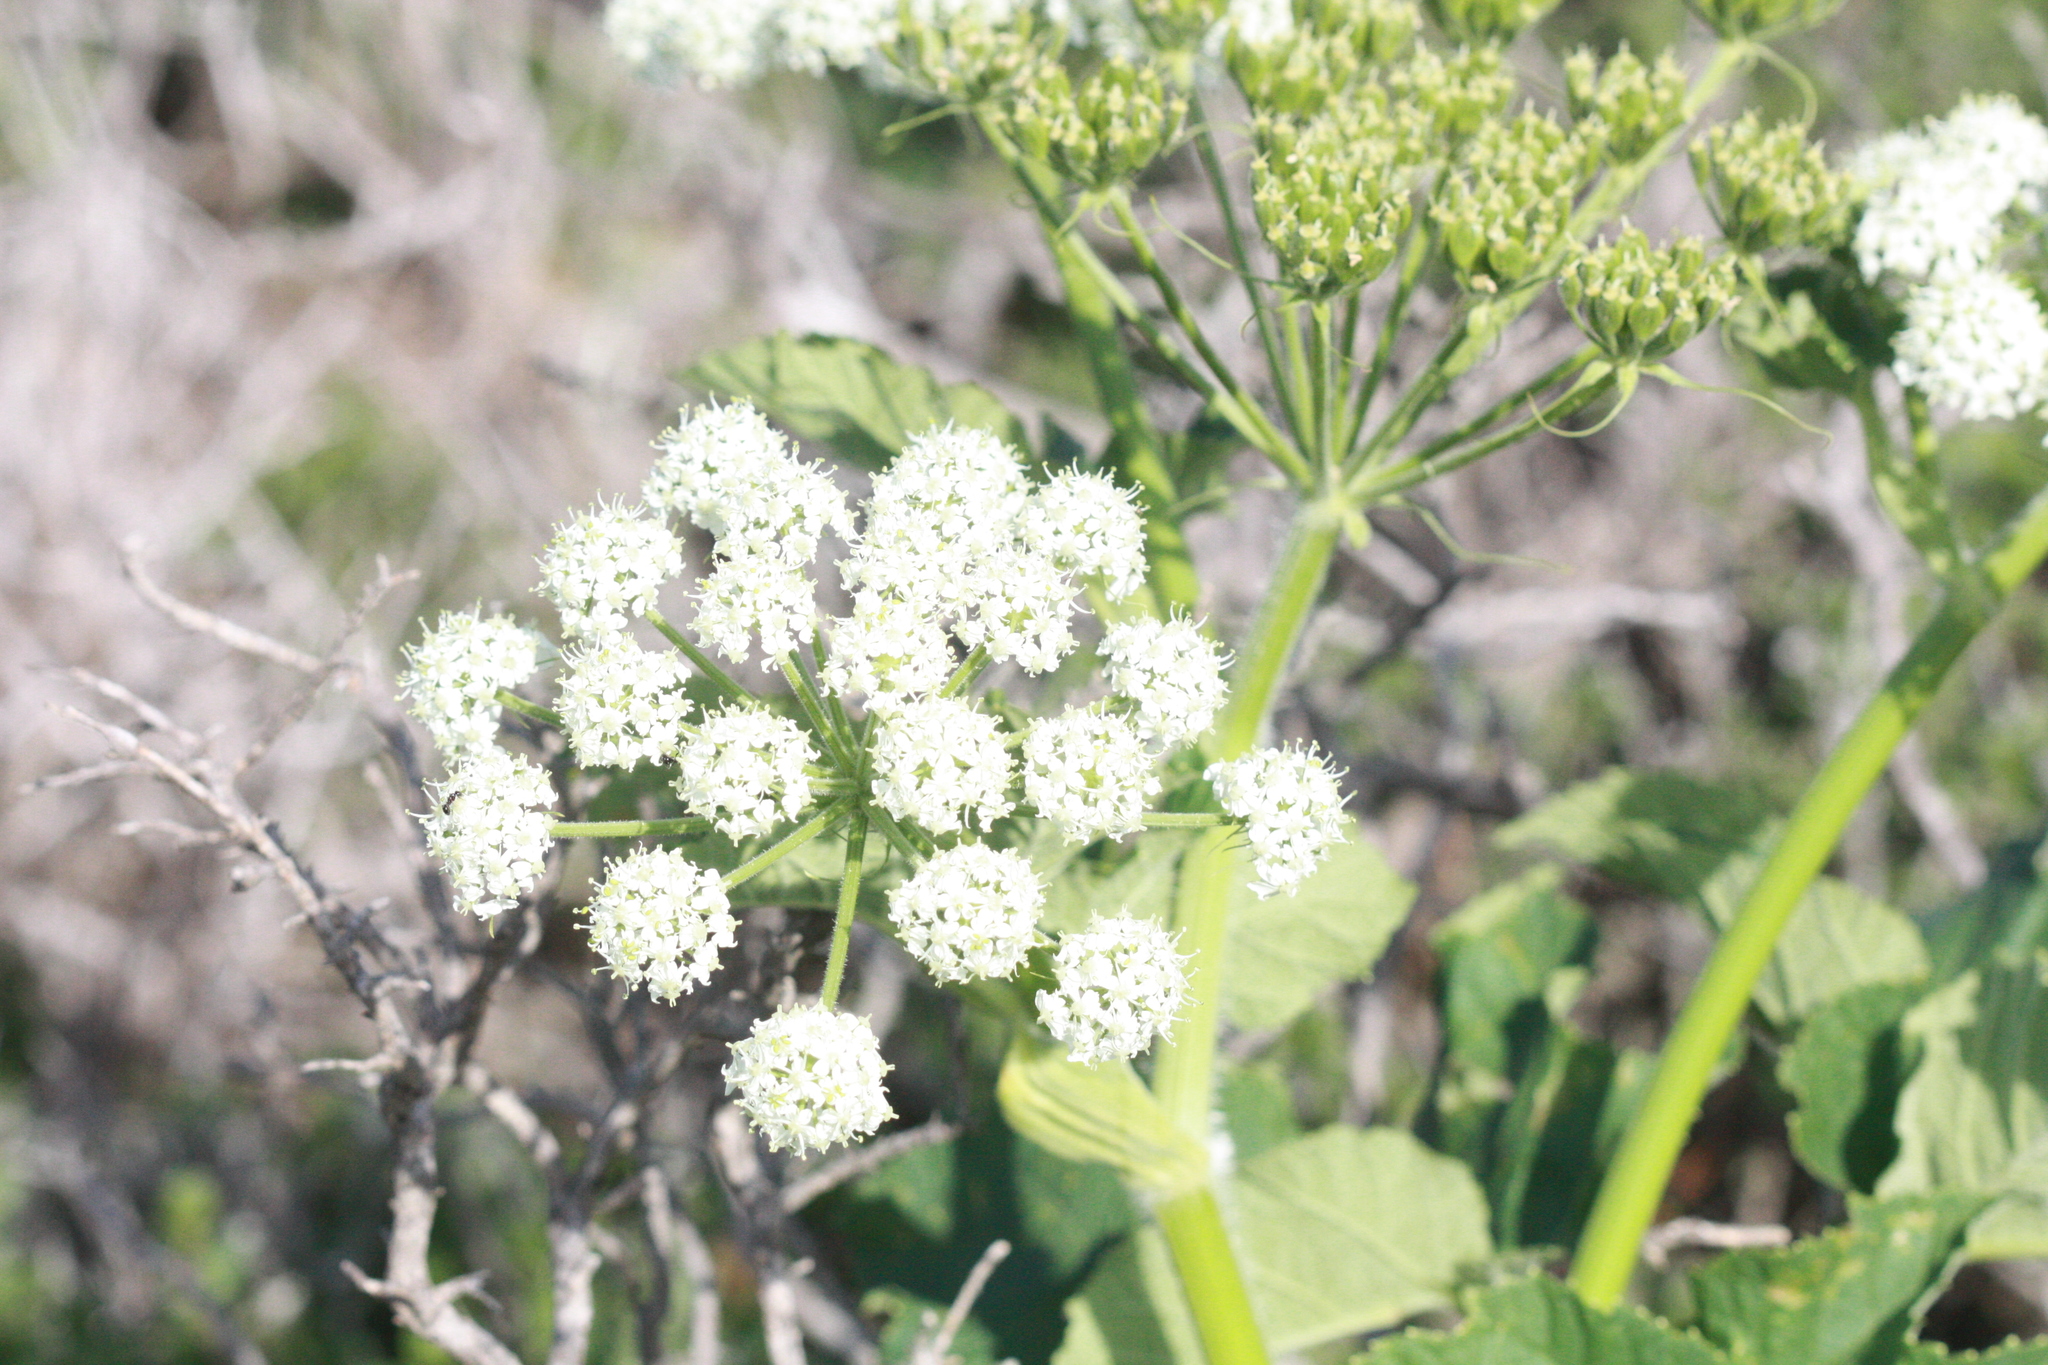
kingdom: Plantae
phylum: Tracheophyta
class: Magnoliopsida
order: Apiales
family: Apiaceae
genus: Heracleum
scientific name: Heracleum maximum
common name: American cow parsnip
